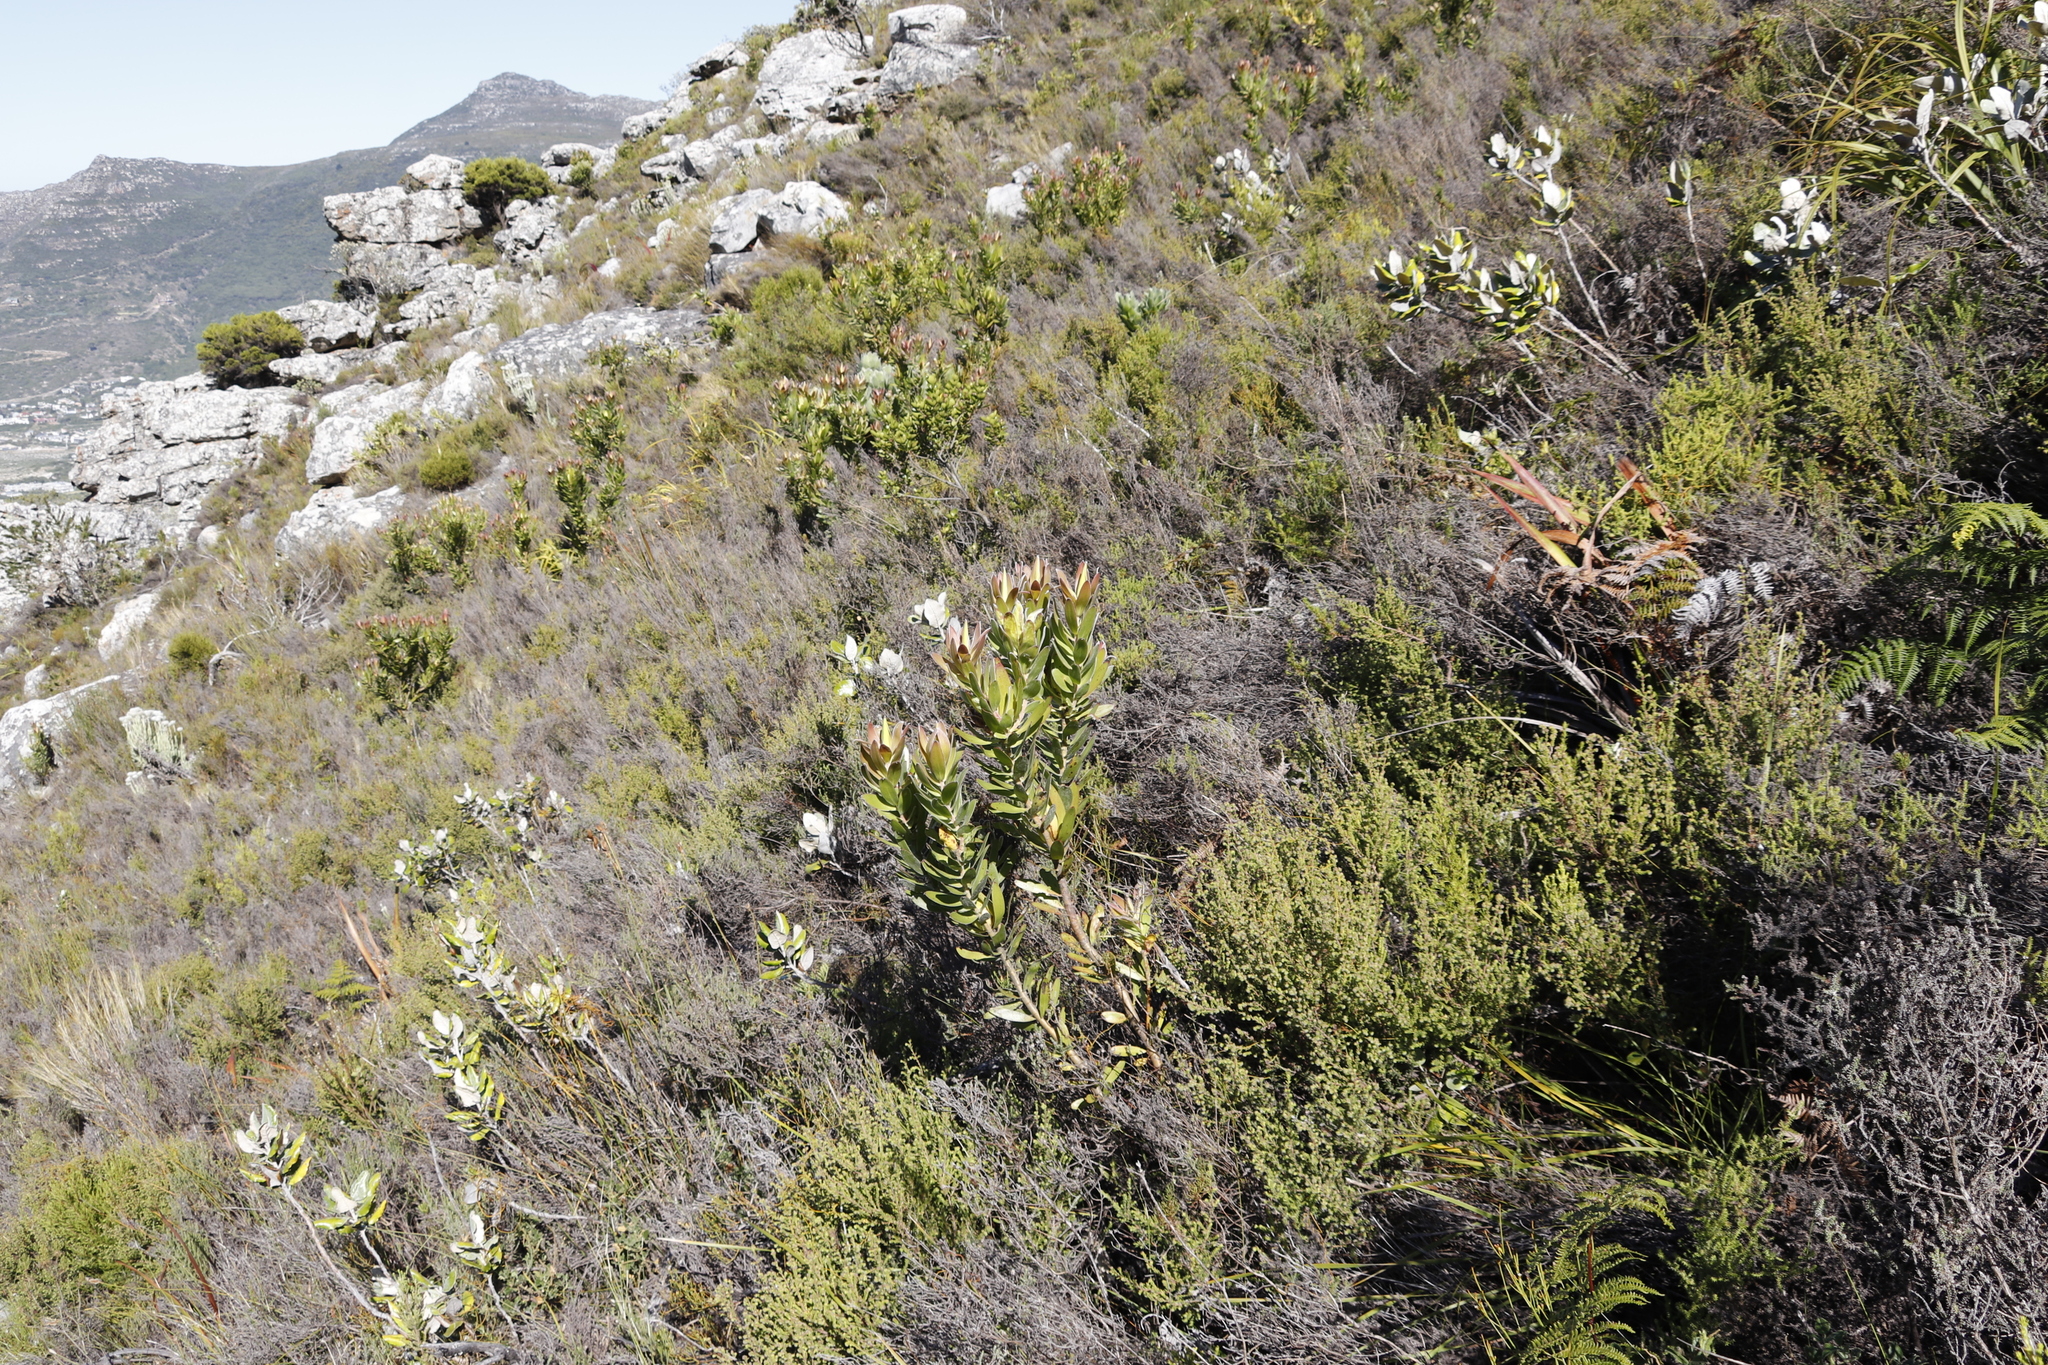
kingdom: Plantae
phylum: Tracheophyta
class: Magnoliopsida
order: Proteales
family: Proteaceae
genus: Leucadendron
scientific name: Leucadendron laureolum
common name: Golden sunshinebush
